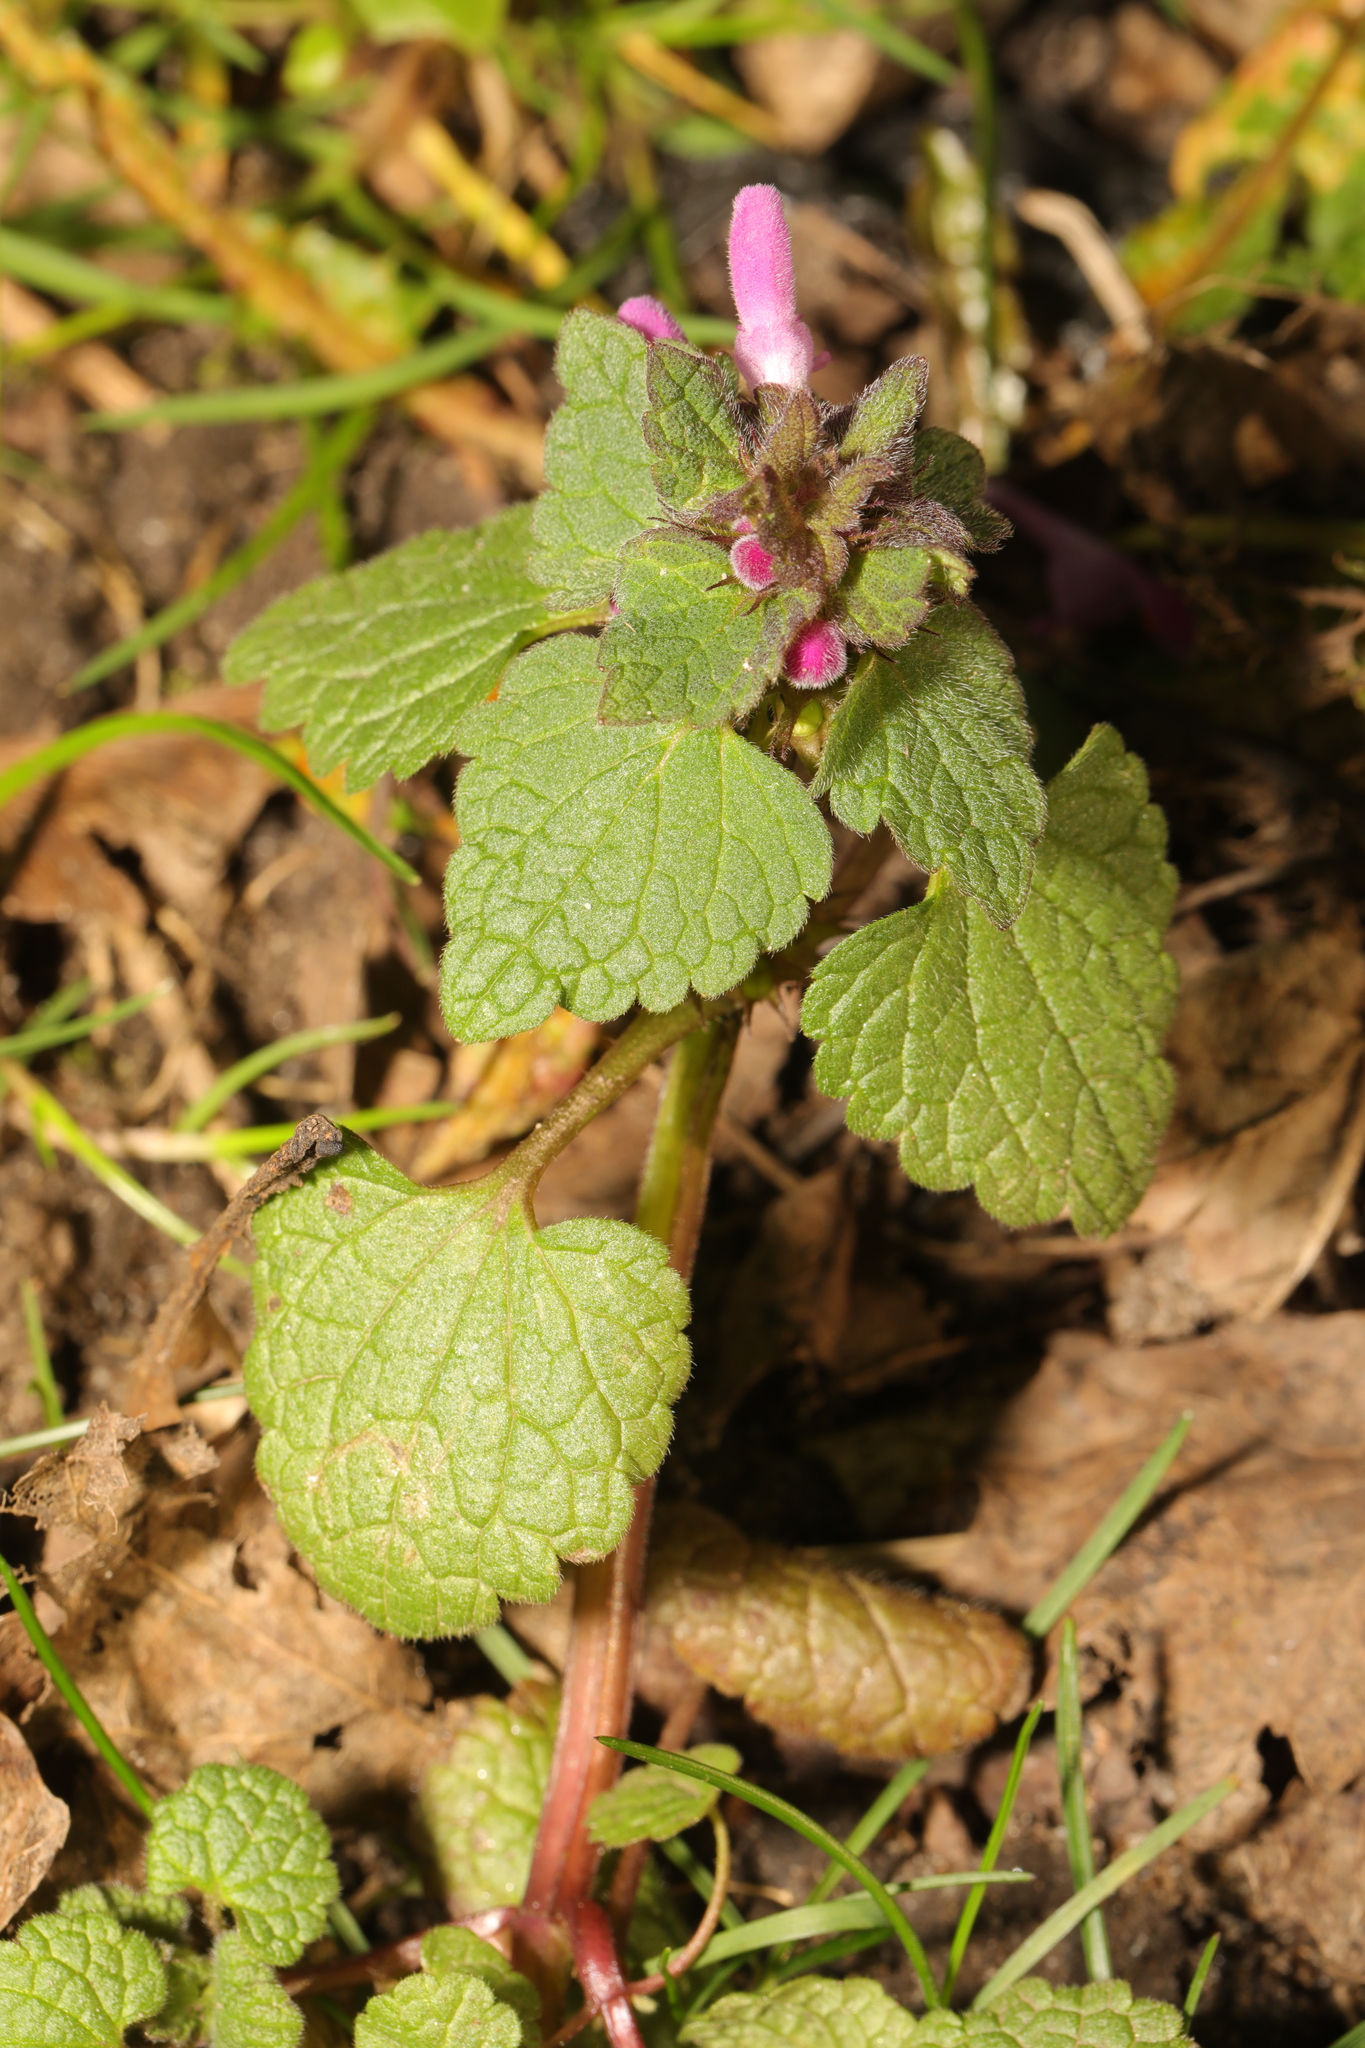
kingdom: Plantae
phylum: Tracheophyta
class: Magnoliopsida
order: Lamiales
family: Lamiaceae
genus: Lamium
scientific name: Lamium purpureum
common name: Red dead-nettle
